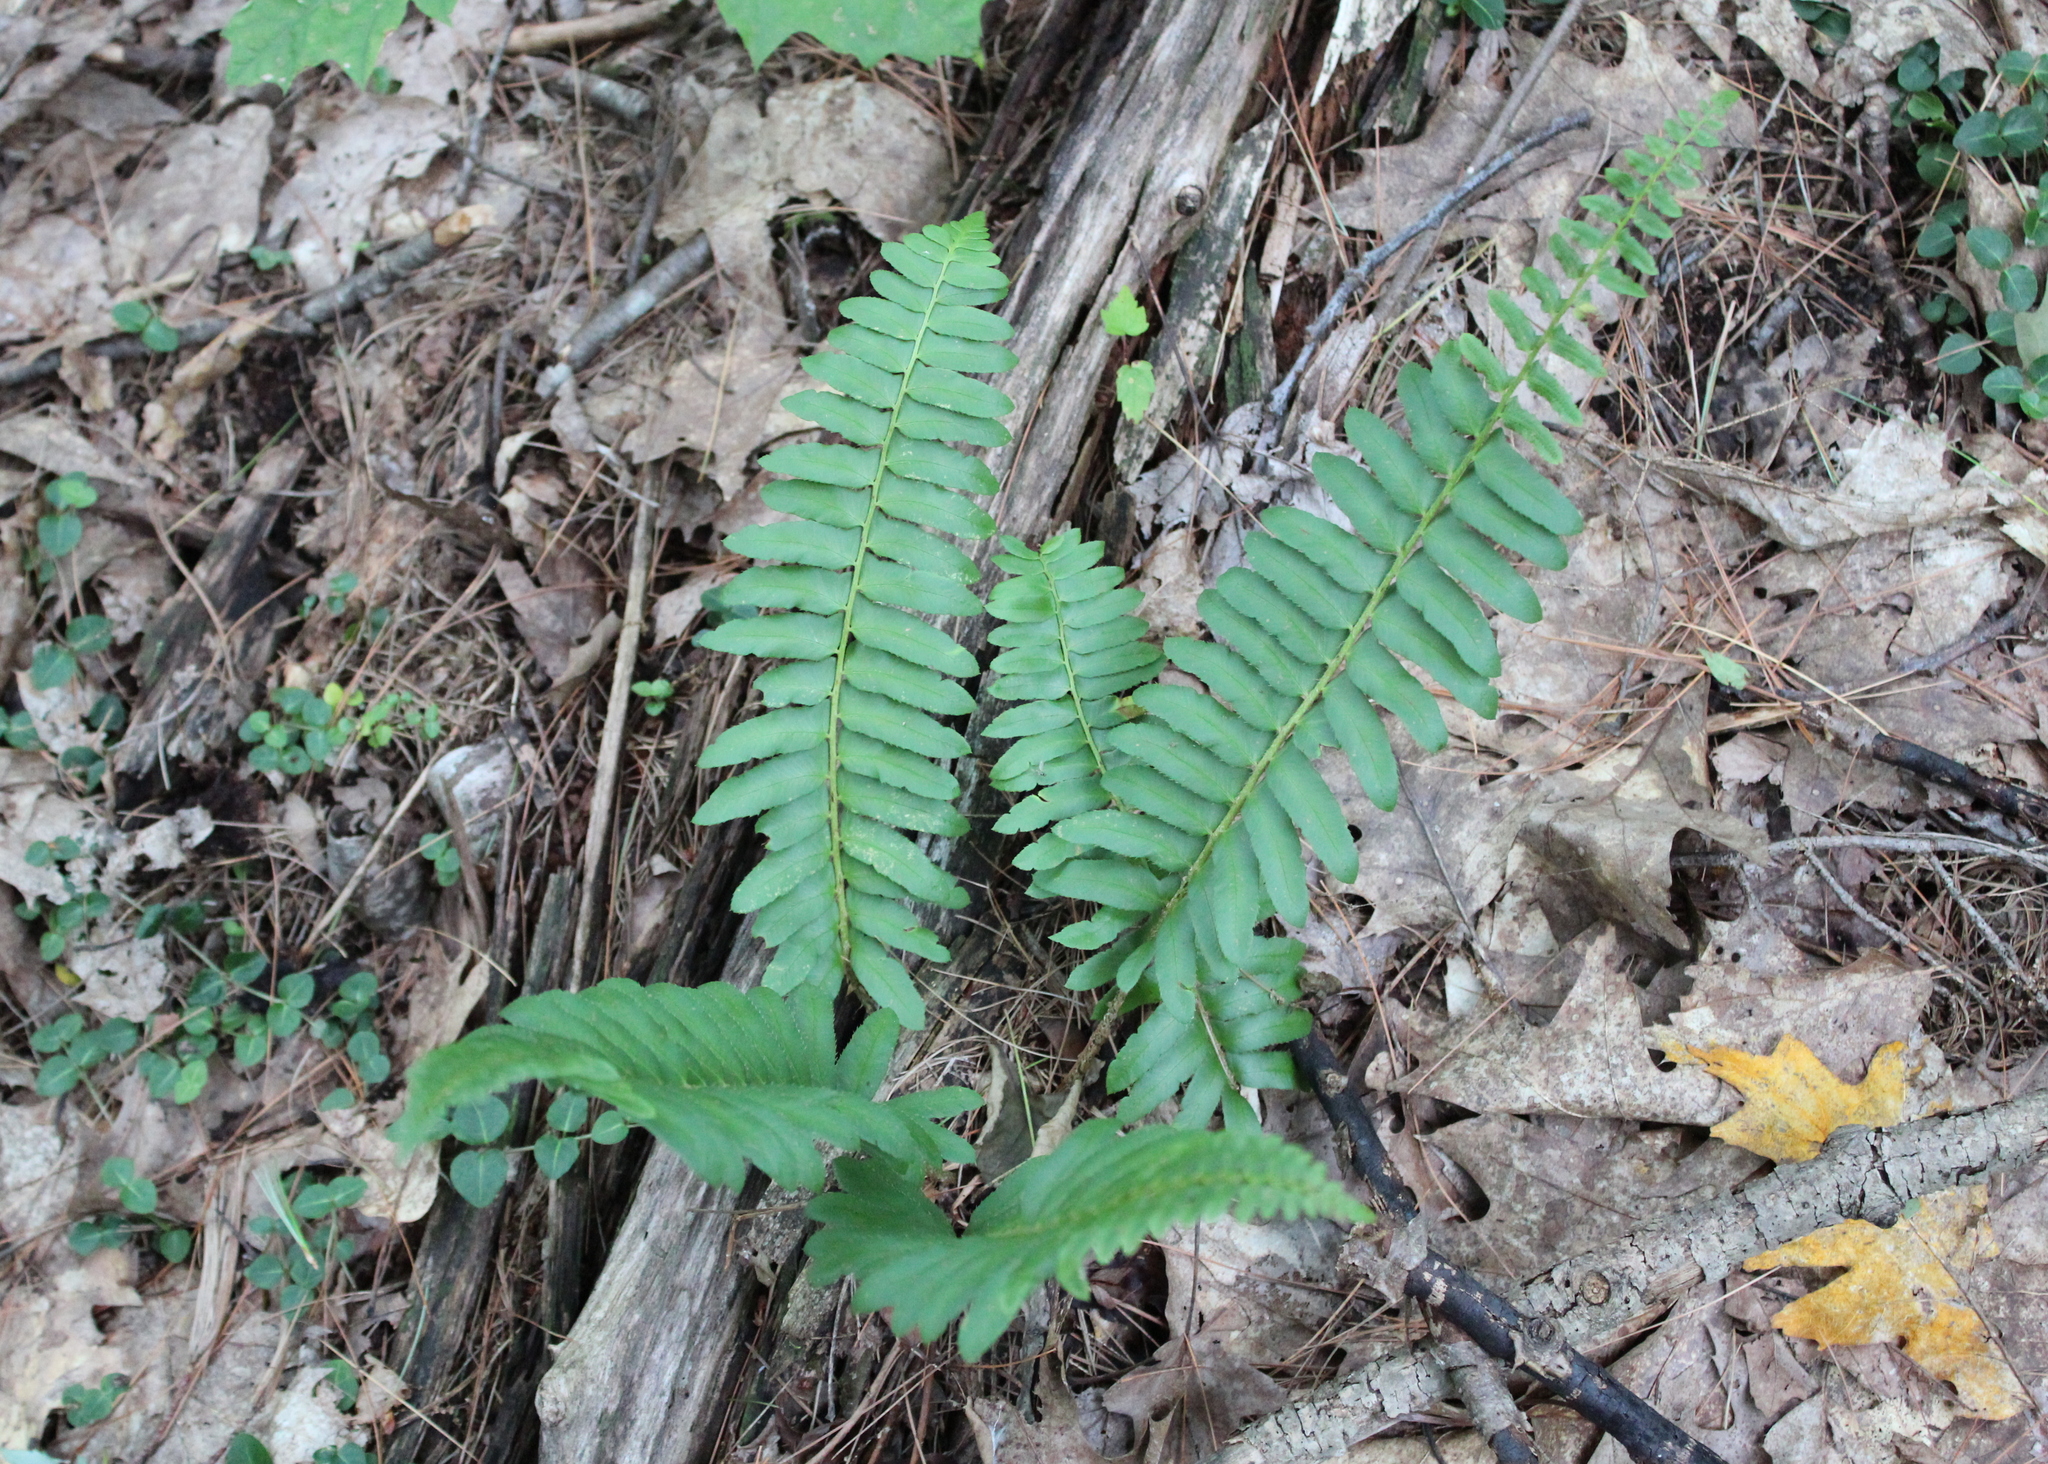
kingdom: Plantae
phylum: Tracheophyta
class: Polypodiopsida
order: Polypodiales
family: Dryopteridaceae
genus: Polystichum
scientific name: Polystichum acrostichoides
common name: Christmas fern
